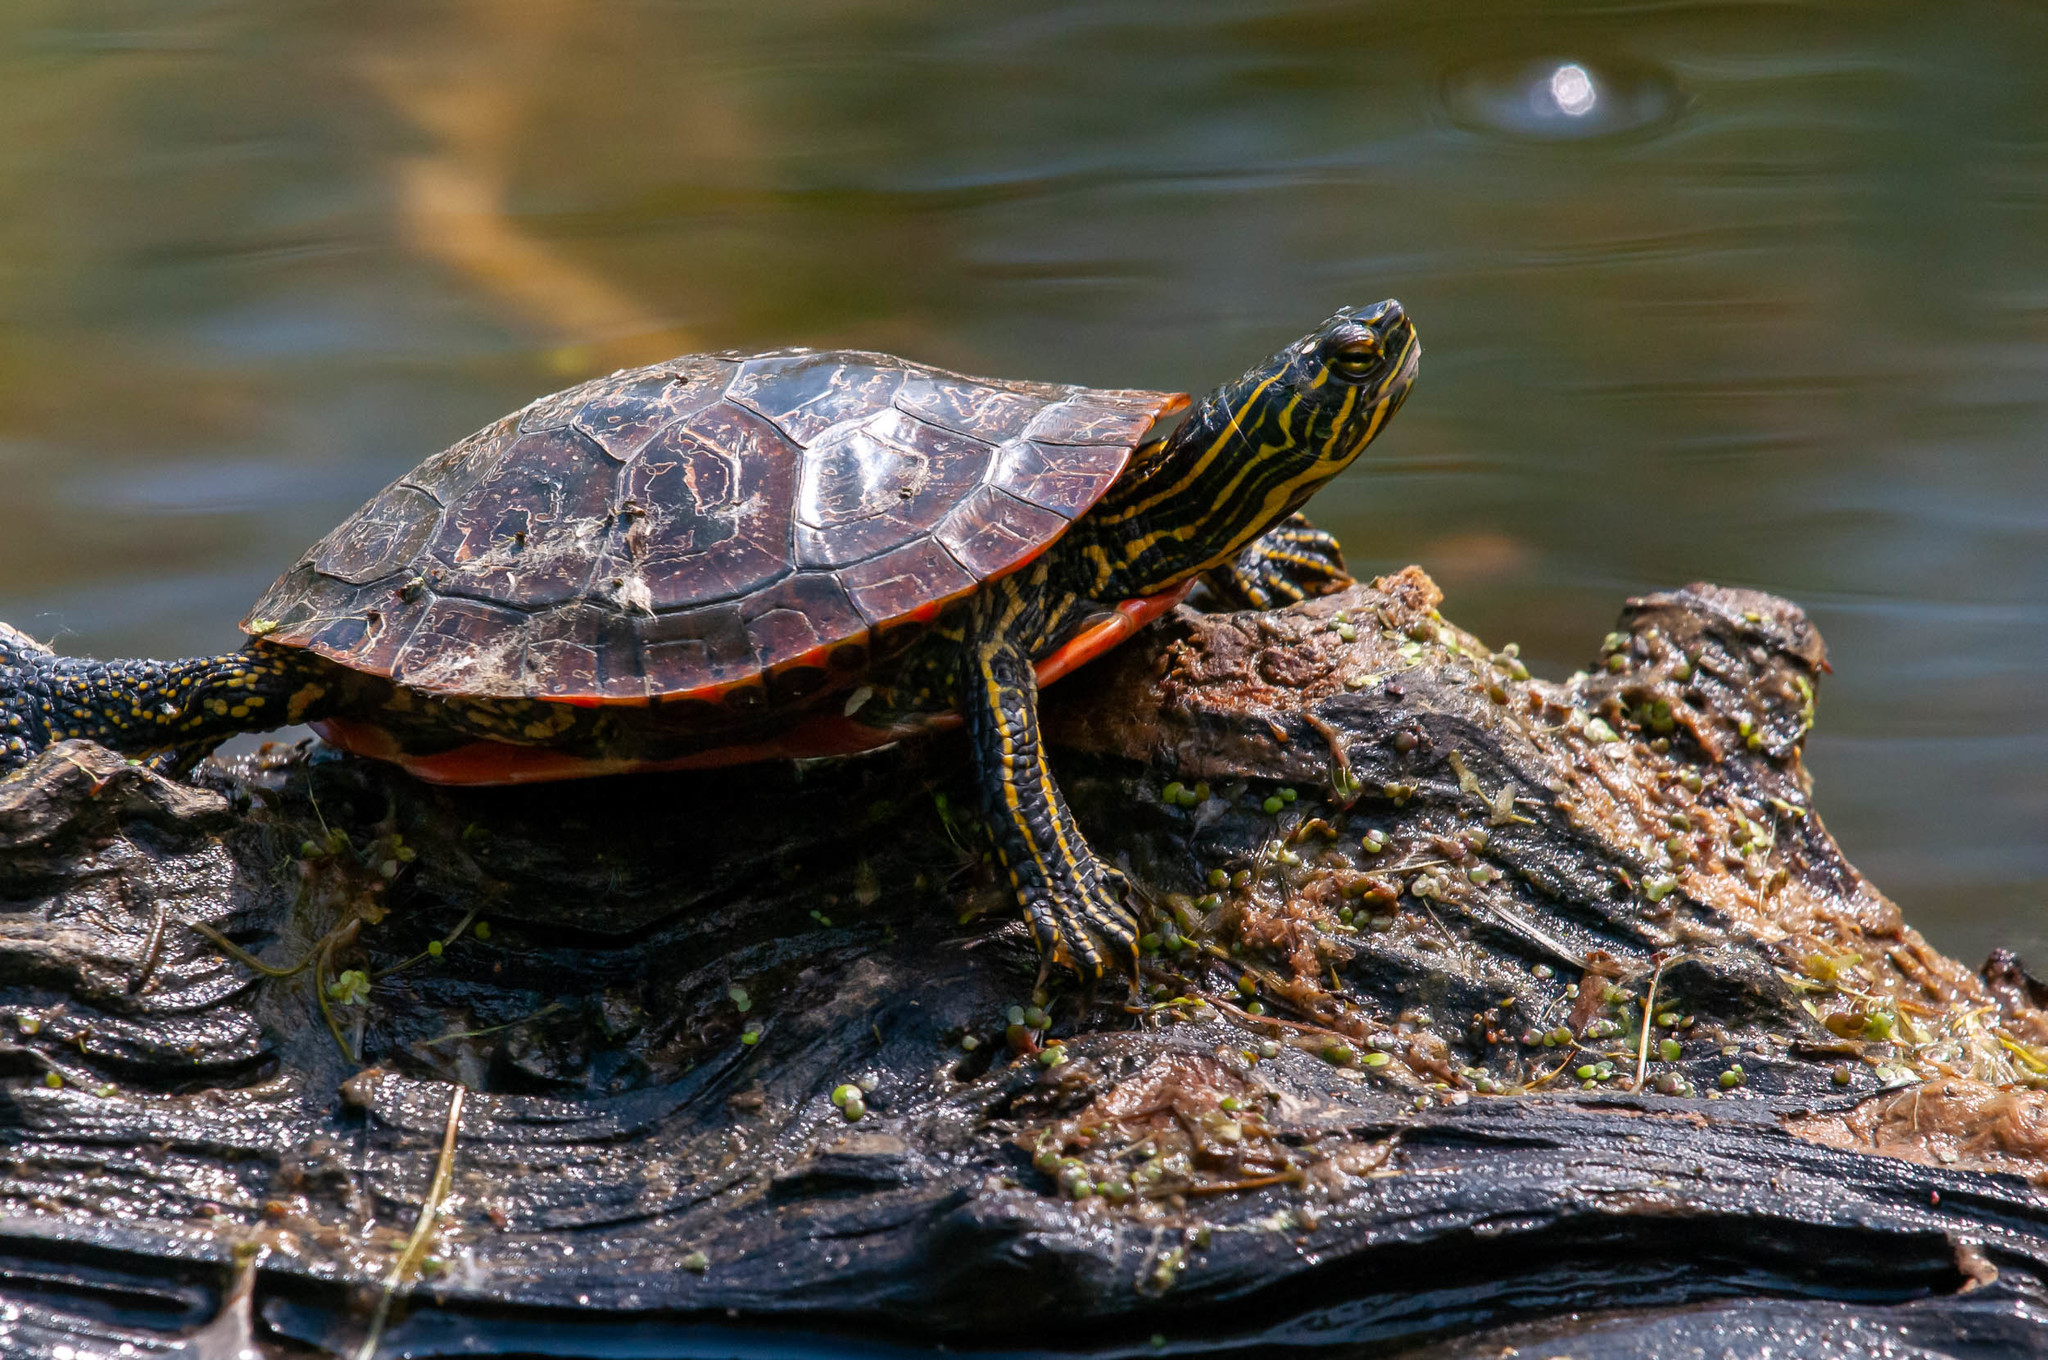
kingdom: Animalia
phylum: Chordata
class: Testudines
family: Emydidae
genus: Chrysemys
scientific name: Chrysemys picta
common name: Painted turtle
